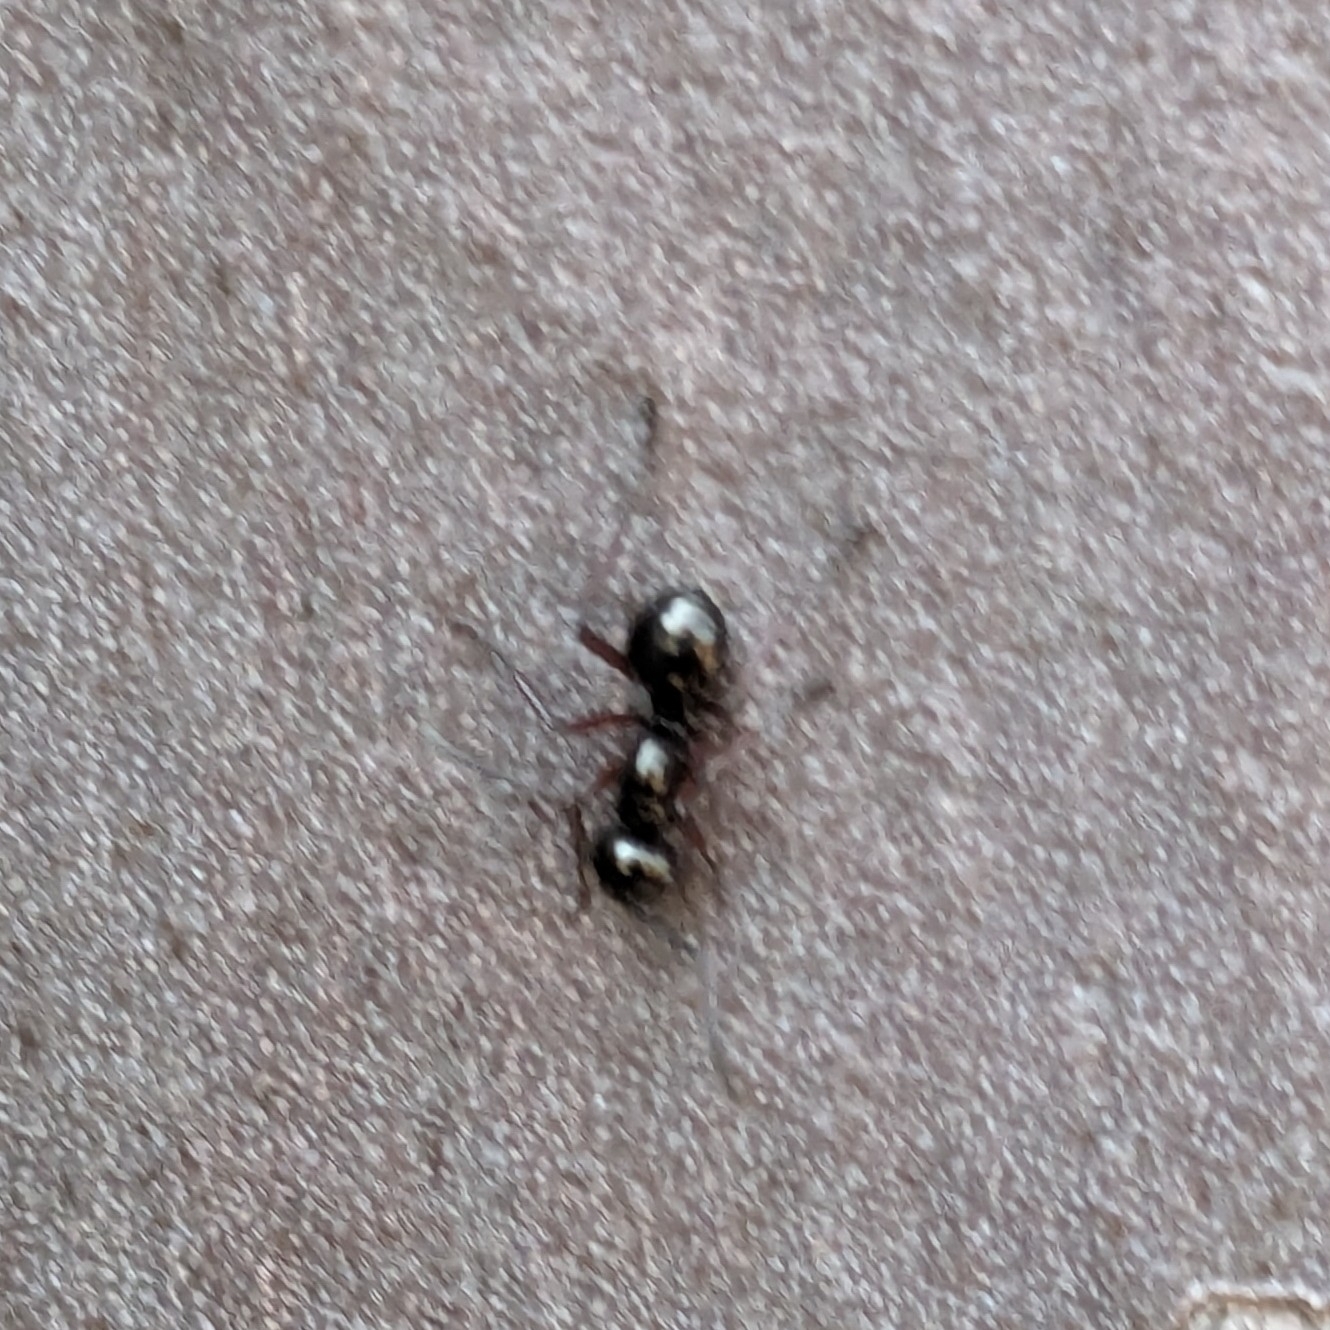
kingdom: Animalia
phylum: Arthropoda
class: Insecta
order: Hymenoptera
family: Formicidae
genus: Polyrhachis
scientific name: Polyrhachis rastellata
